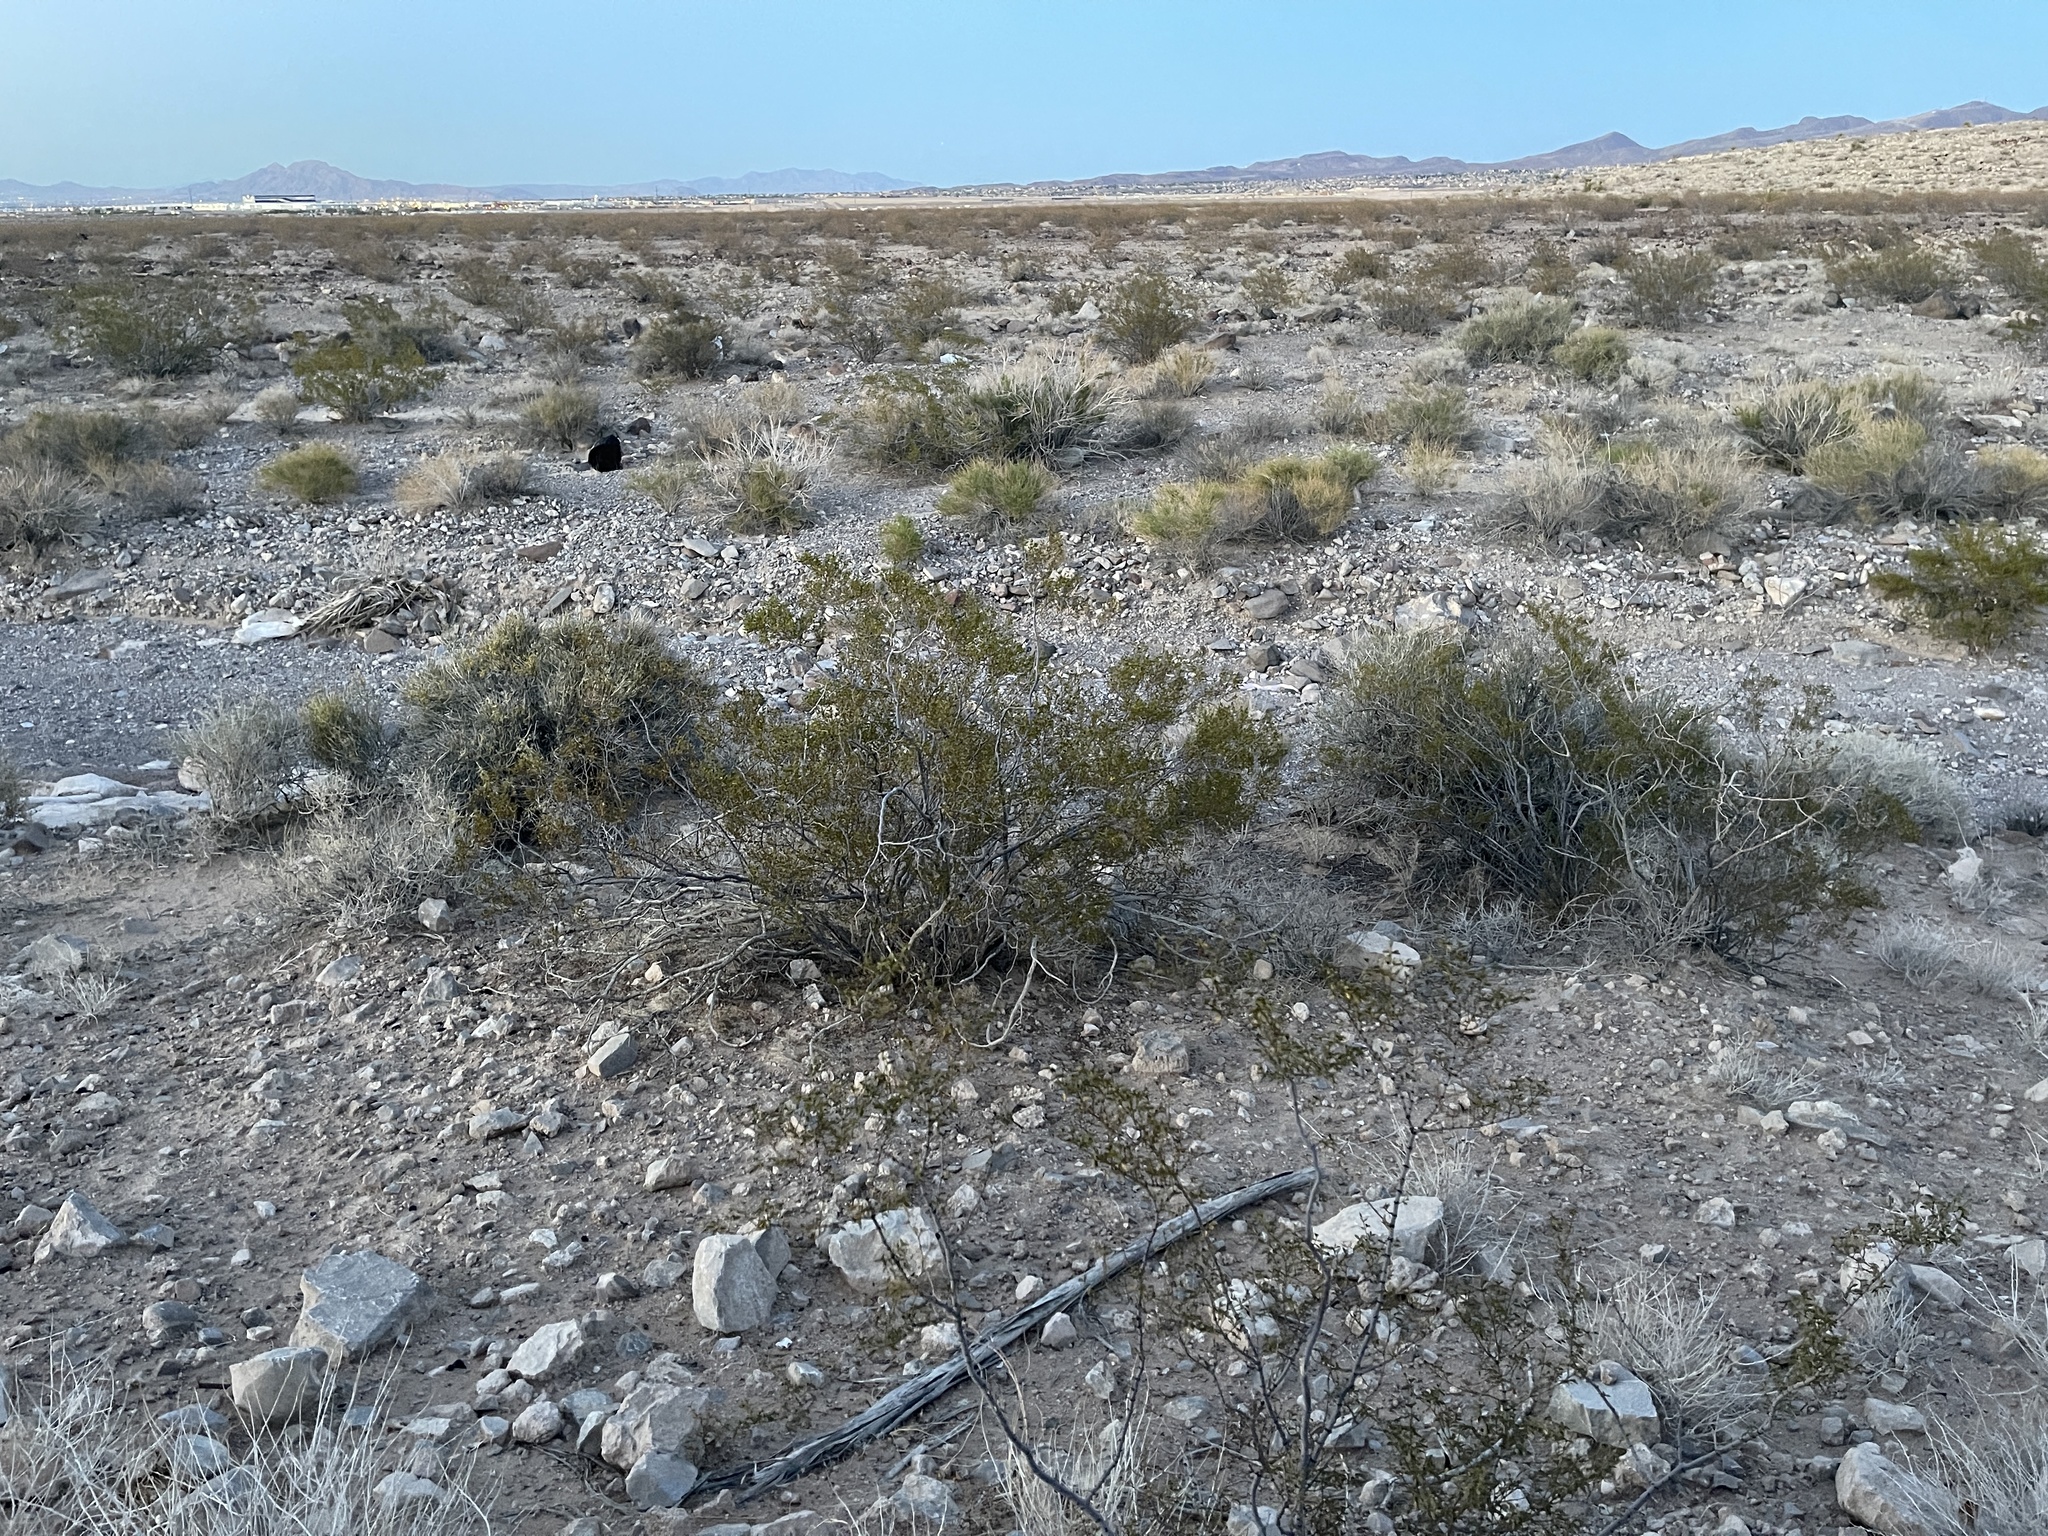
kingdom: Plantae
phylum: Tracheophyta
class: Magnoliopsida
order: Zygophyllales
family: Zygophyllaceae
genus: Larrea
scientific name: Larrea tridentata
